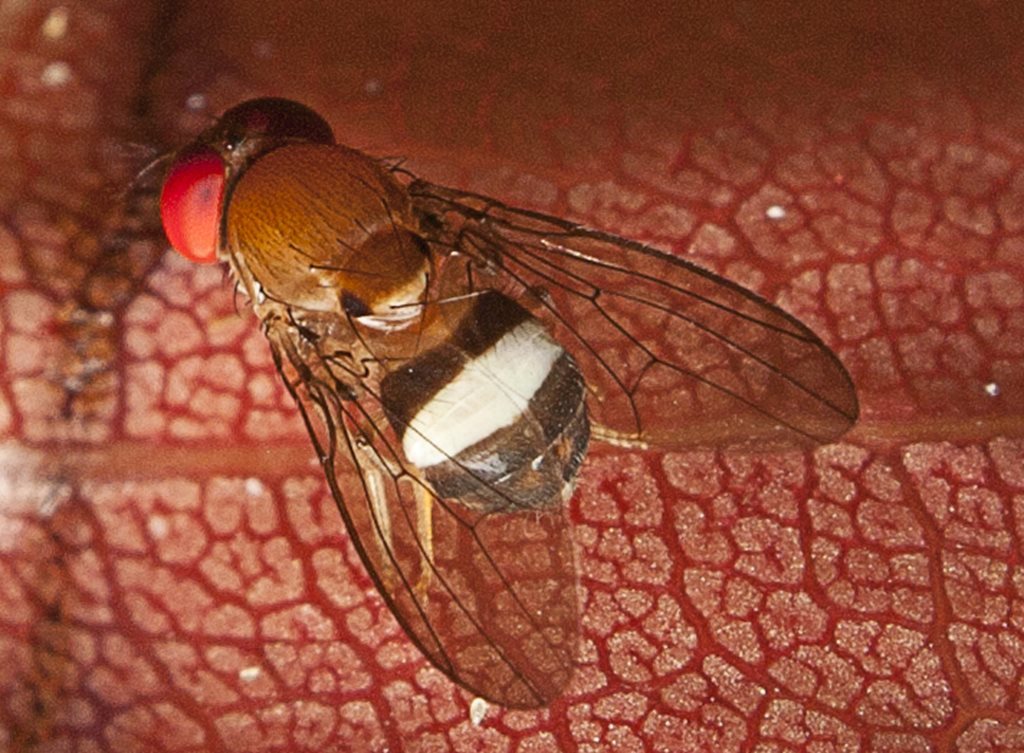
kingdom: Animalia
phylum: Arthropoda
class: Insecta
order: Diptera
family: Drosophilidae
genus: Leucophenga
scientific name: Leucophenga scutellata
